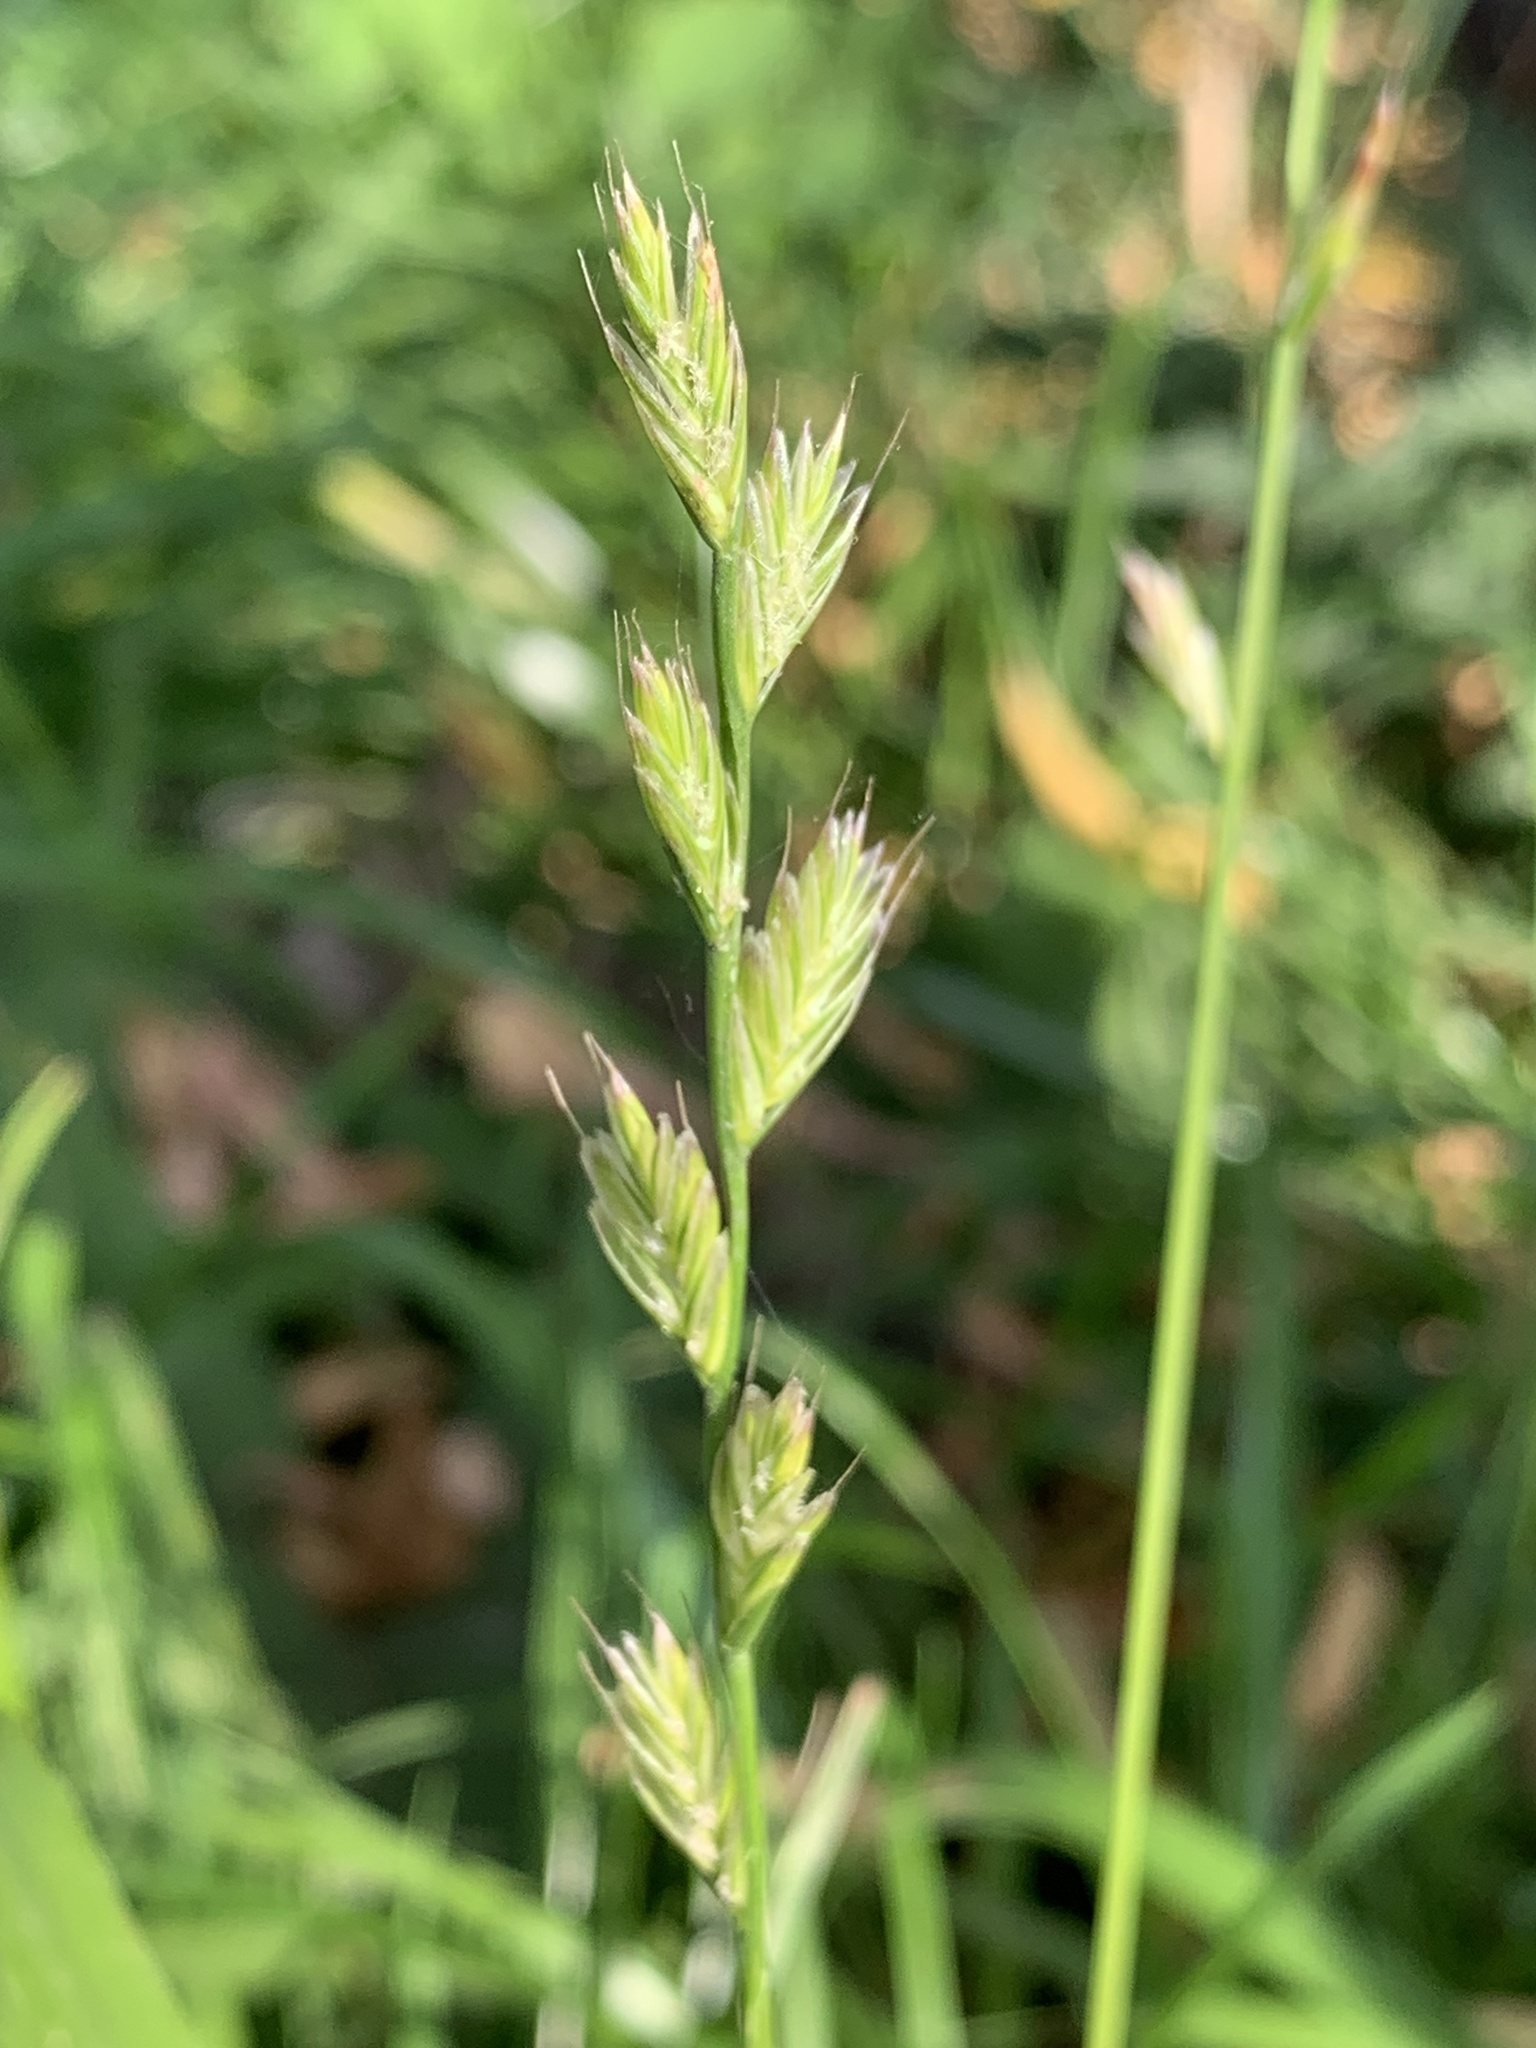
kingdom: Plantae
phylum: Tracheophyta
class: Liliopsida
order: Poales
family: Poaceae
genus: Lolium
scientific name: Lolium multiflorum
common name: Annual ryegrass
